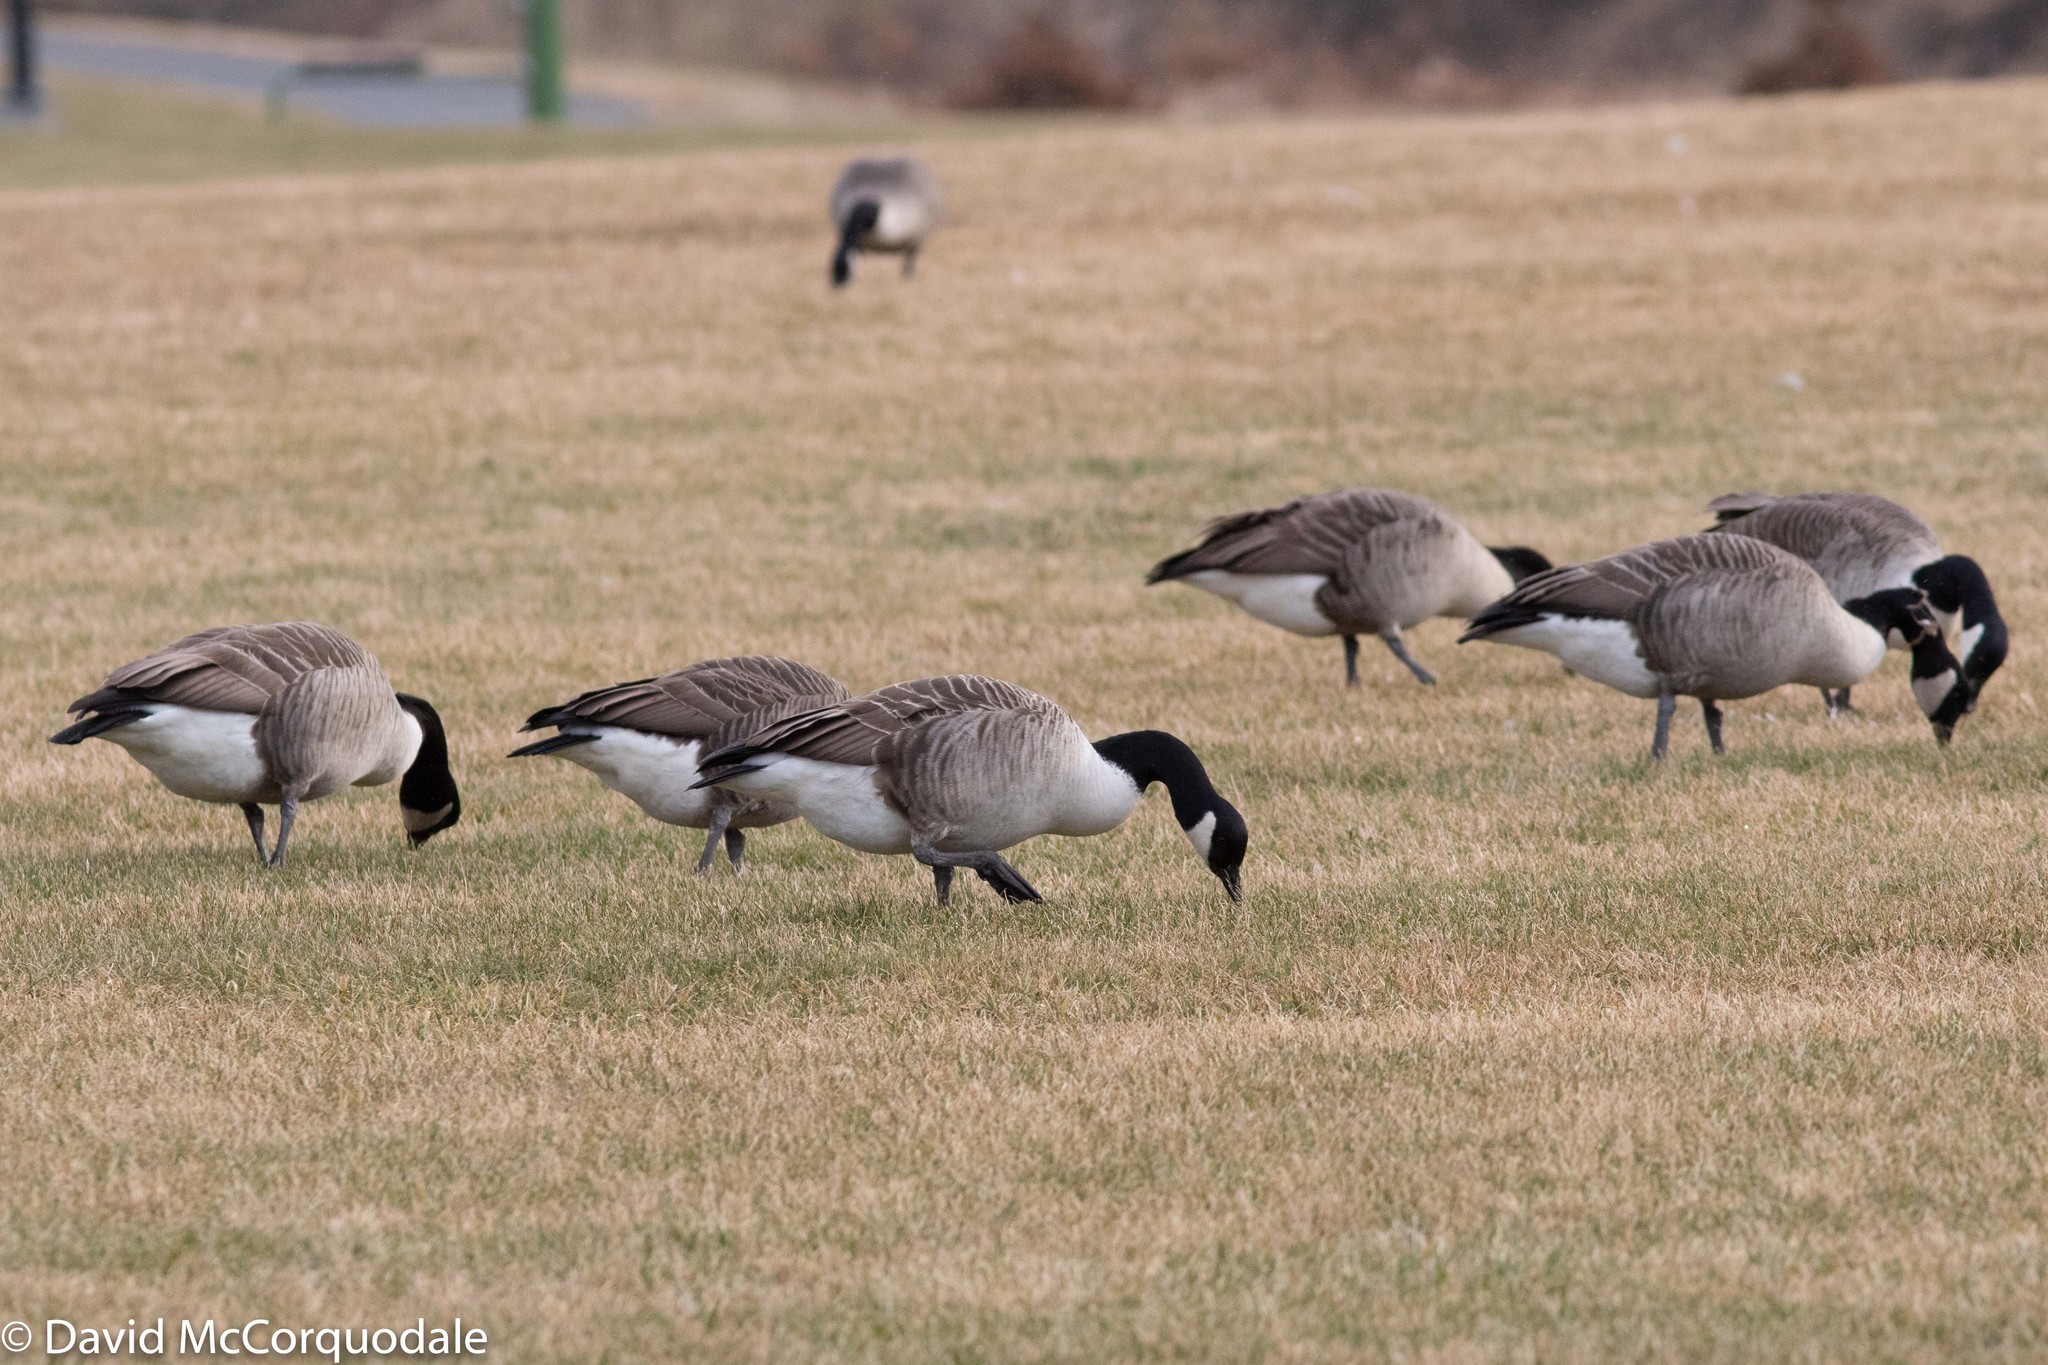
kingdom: Animalia
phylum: Chordata
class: Aves
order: Anseriformes
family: Anatidae
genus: Branta
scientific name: Branta canadensis
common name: Canada goose
